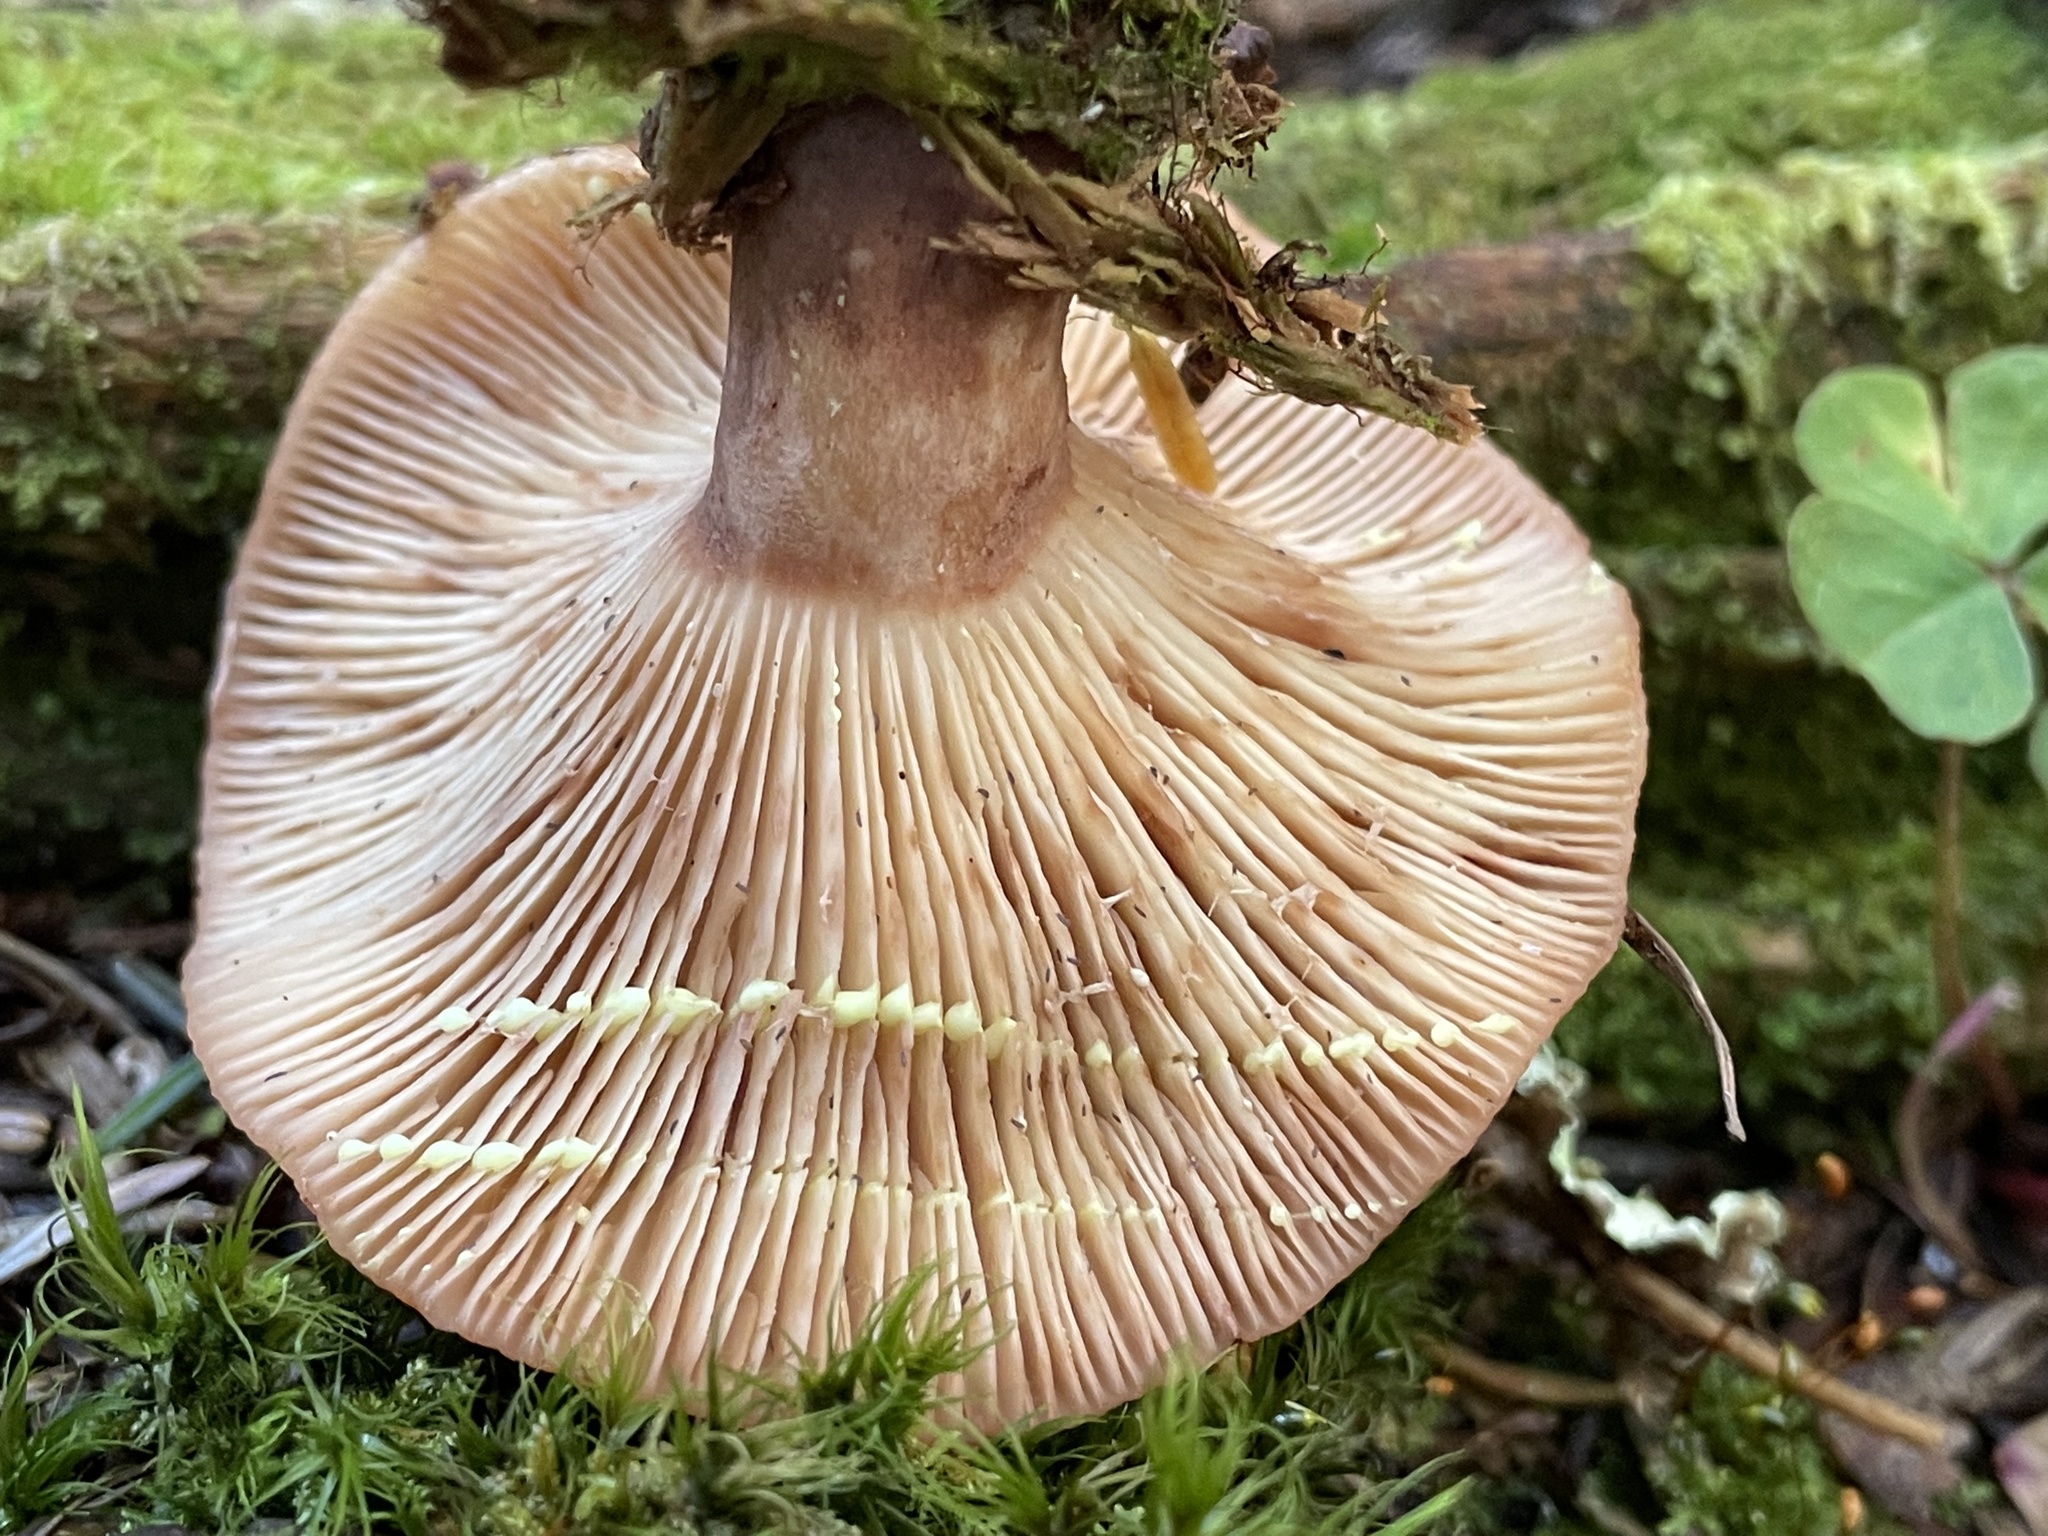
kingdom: Fungi
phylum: Basidiomycota
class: Agaricomycetes
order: Russulales
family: Russulaceae
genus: Lactarius
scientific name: Lactarius vinaceorufescens
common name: Yellow-latex milkcap
